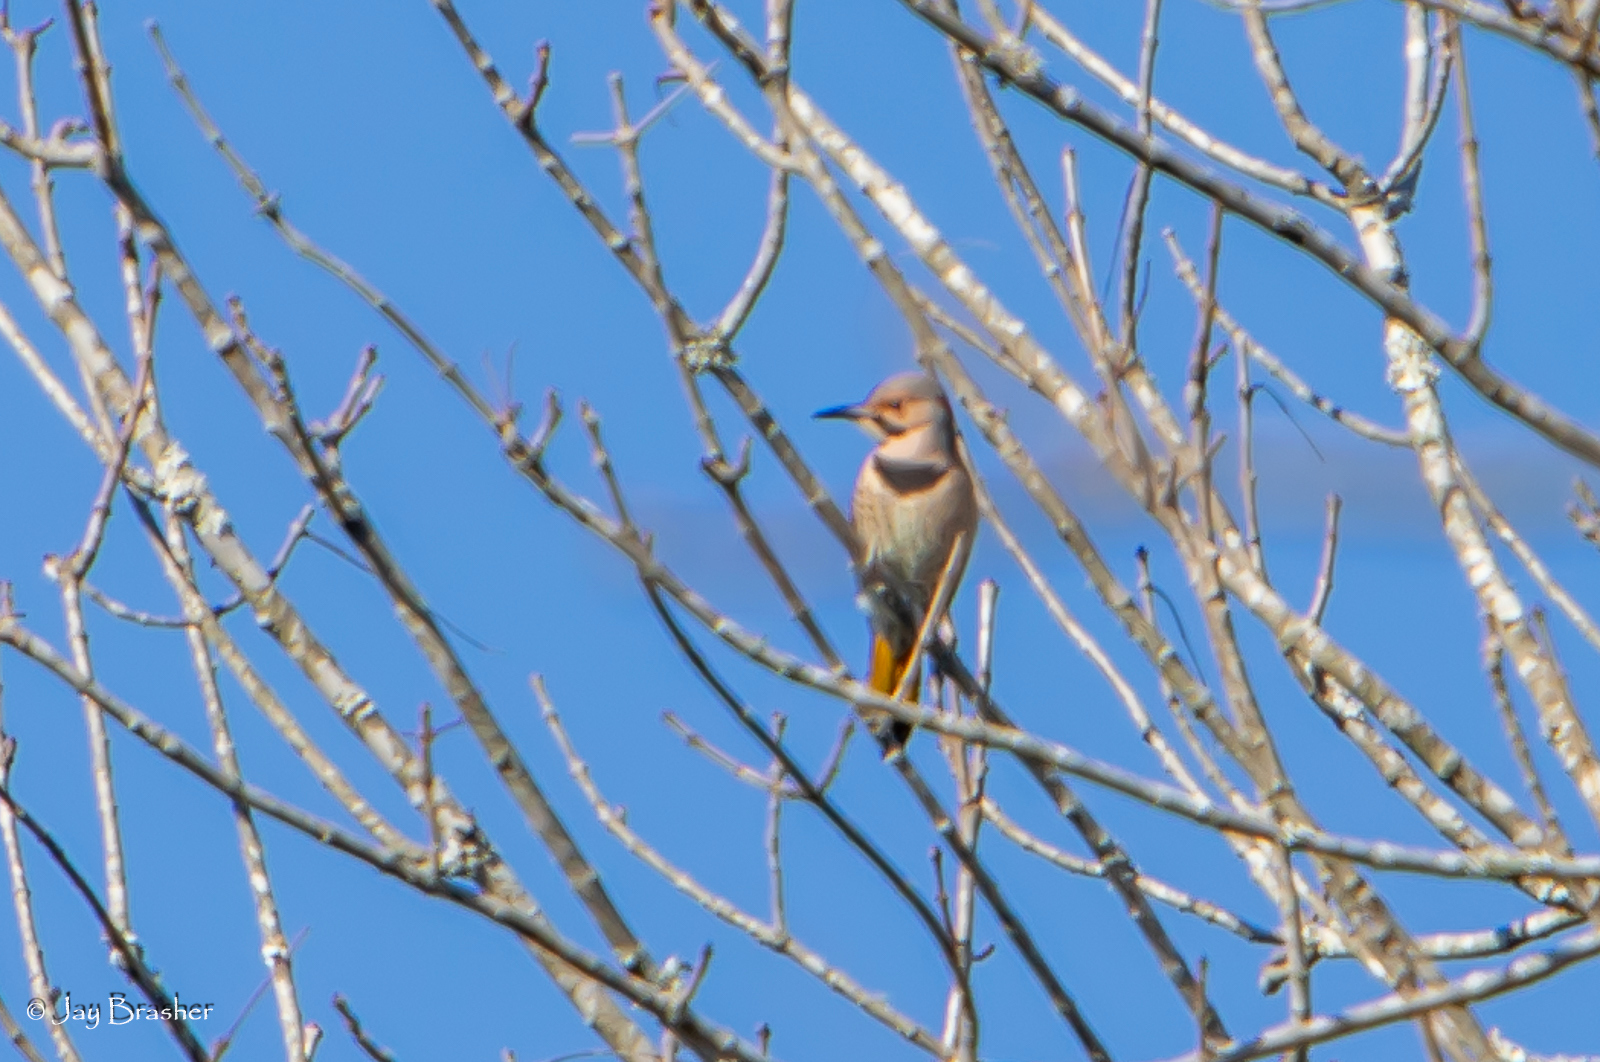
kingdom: Animalia
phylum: Chordata
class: Aves
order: Piciformes
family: Picidae
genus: Colaptes
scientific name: Colaptes auratus
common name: Northern flicker
